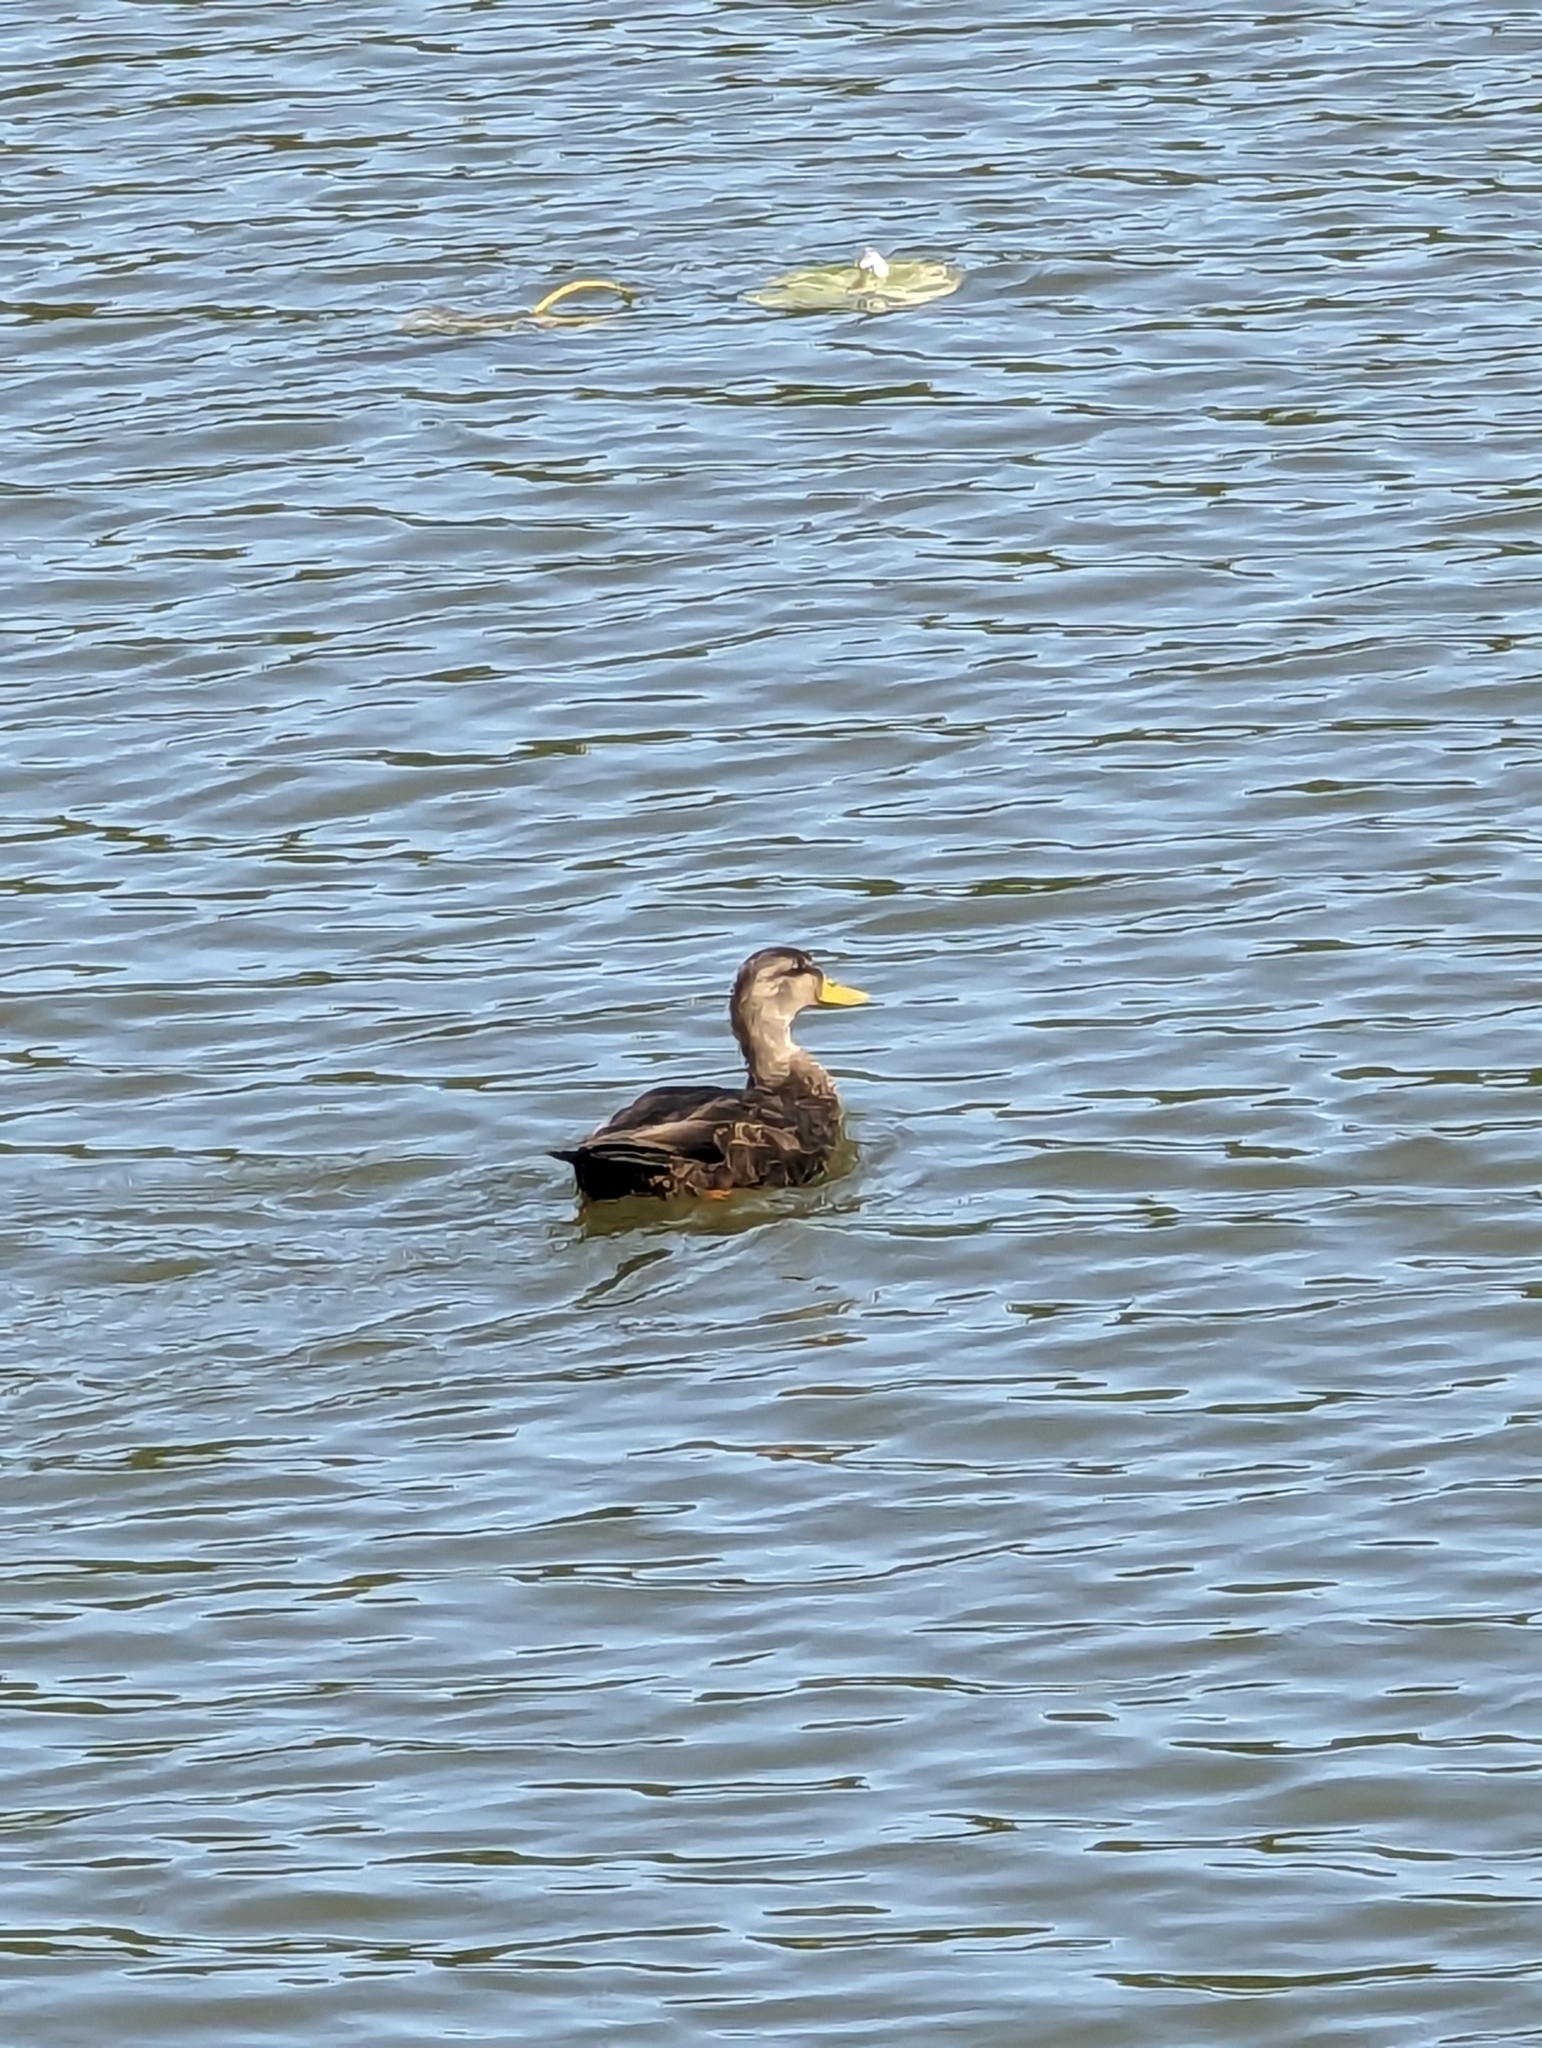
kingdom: Animalia
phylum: Chordata
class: Aves
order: Anseriformes
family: Anatidae
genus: Anas
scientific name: Anas rubripes
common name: American black duck
